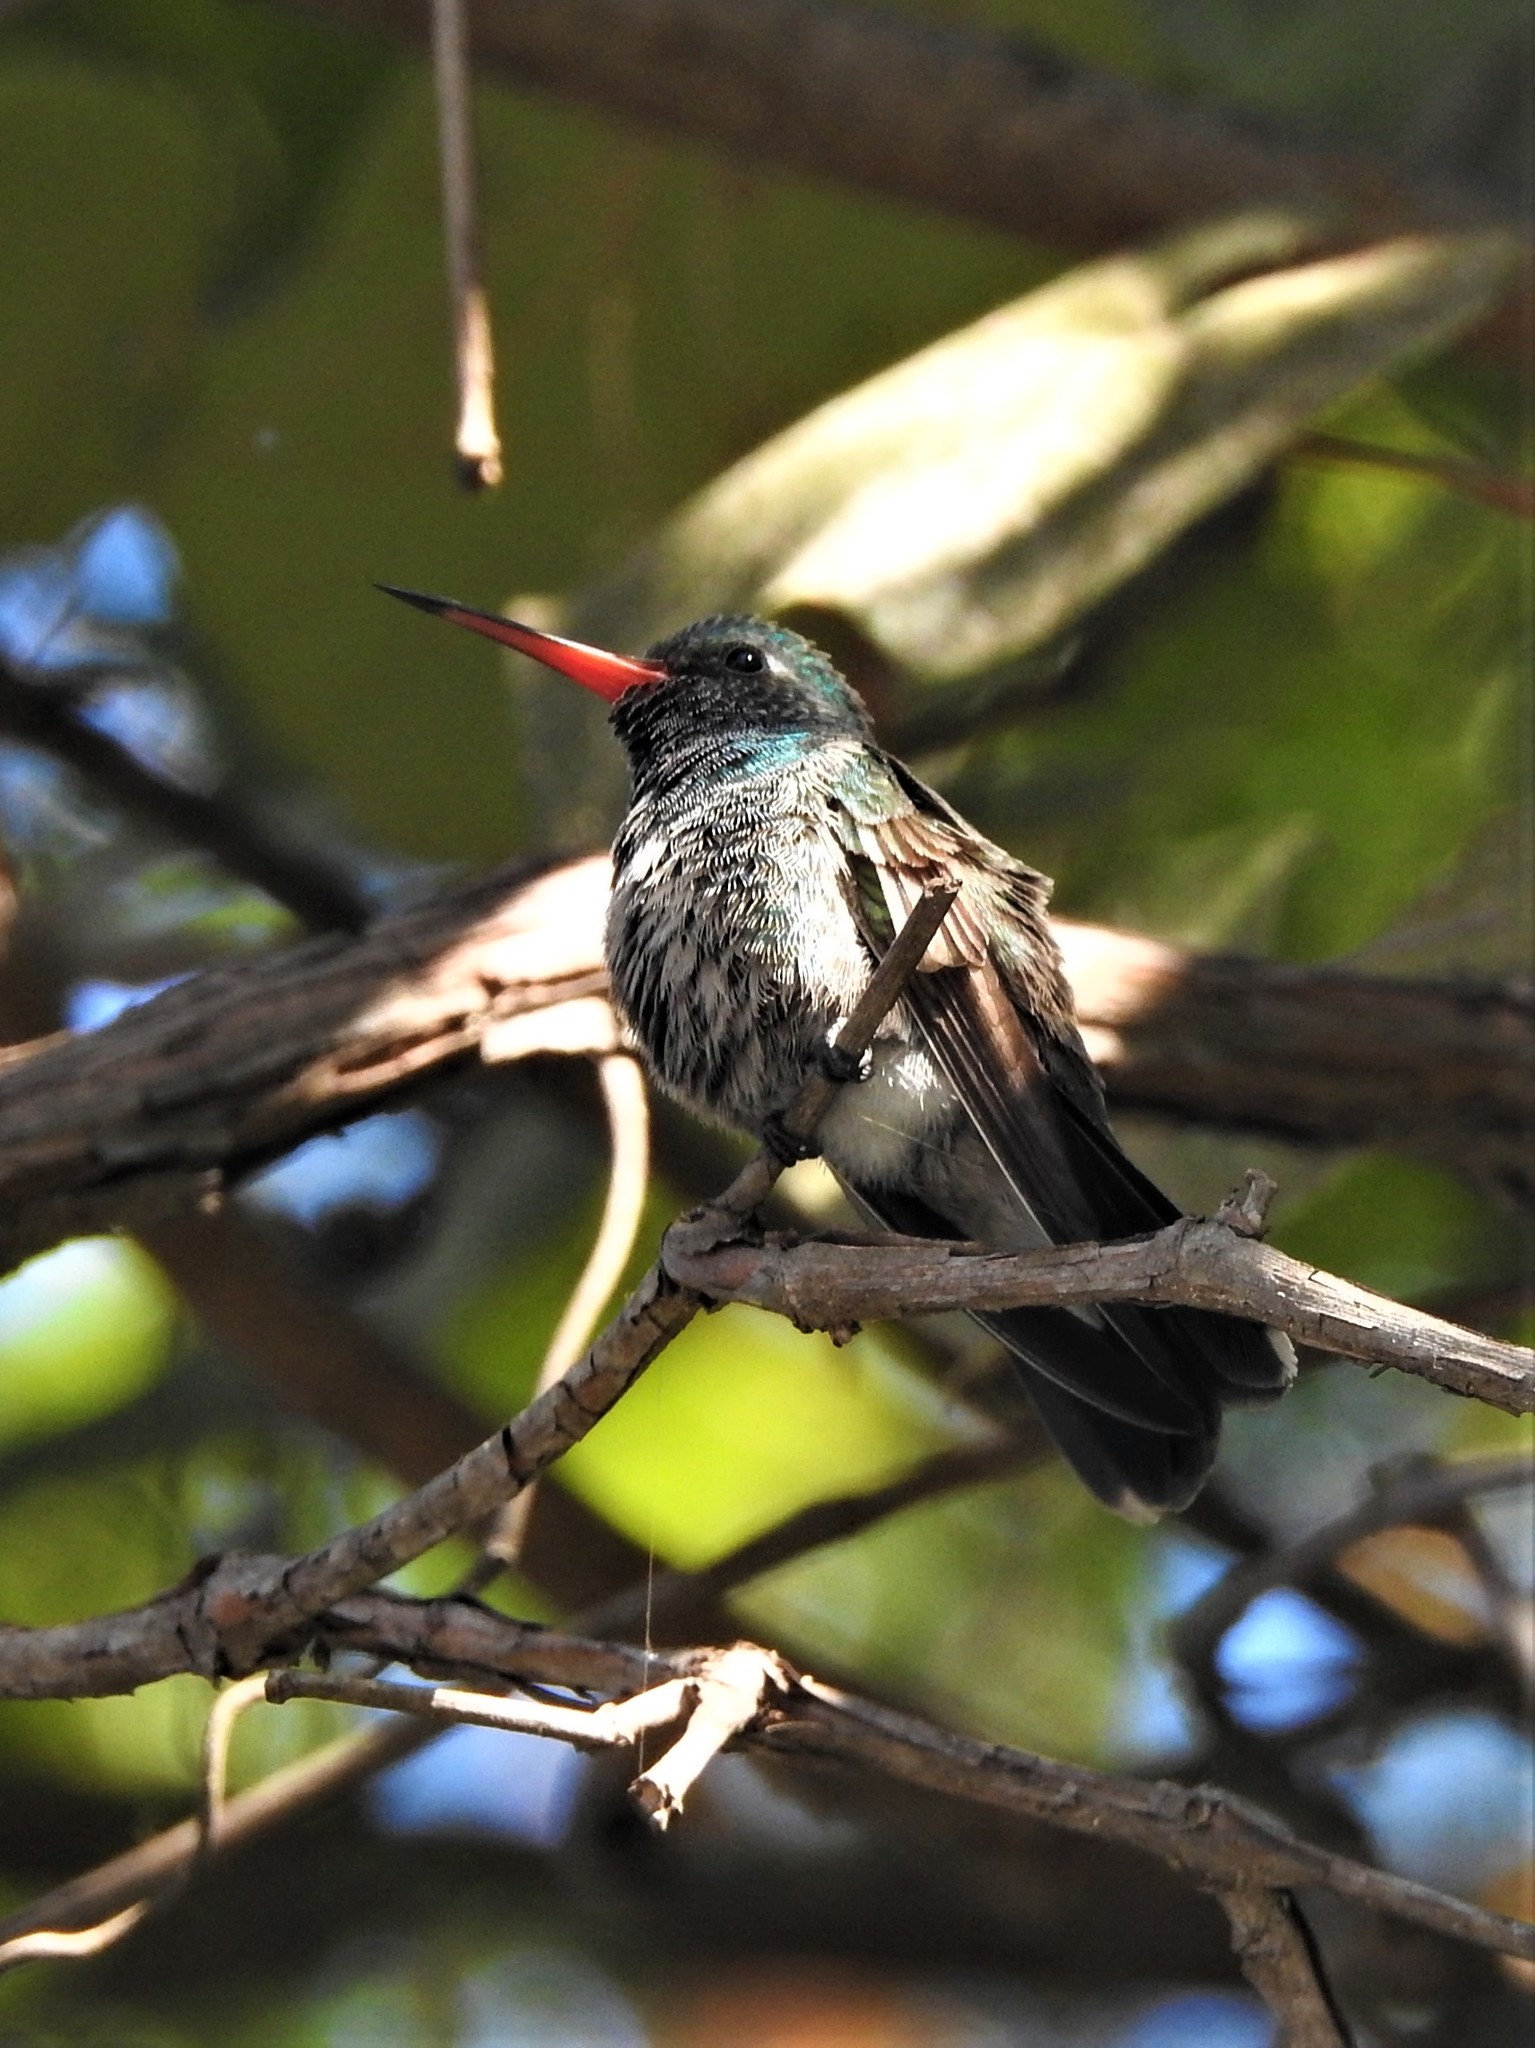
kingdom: Animalia
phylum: Chordata
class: Aves
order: Apodiformes
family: Trochilidae
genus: Cynanthus
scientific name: Cynanthus latirostris
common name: Broad-billed hummingbird
